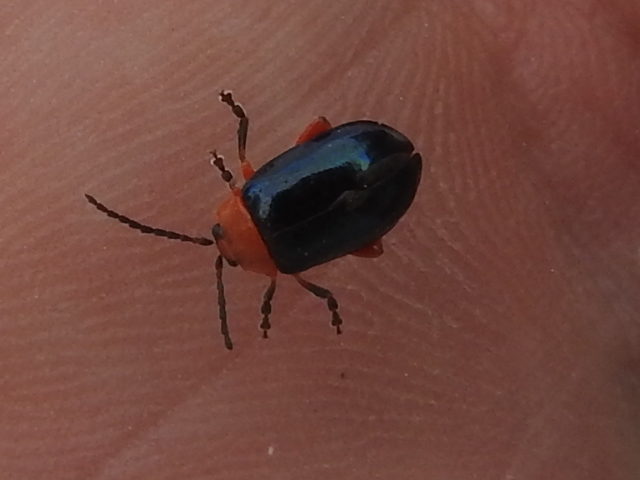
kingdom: Animalia
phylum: Arthropoda
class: Insecta
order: Coleoptera
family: Chrysomelidae
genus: Asphaera
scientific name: Asphaera lustrans
